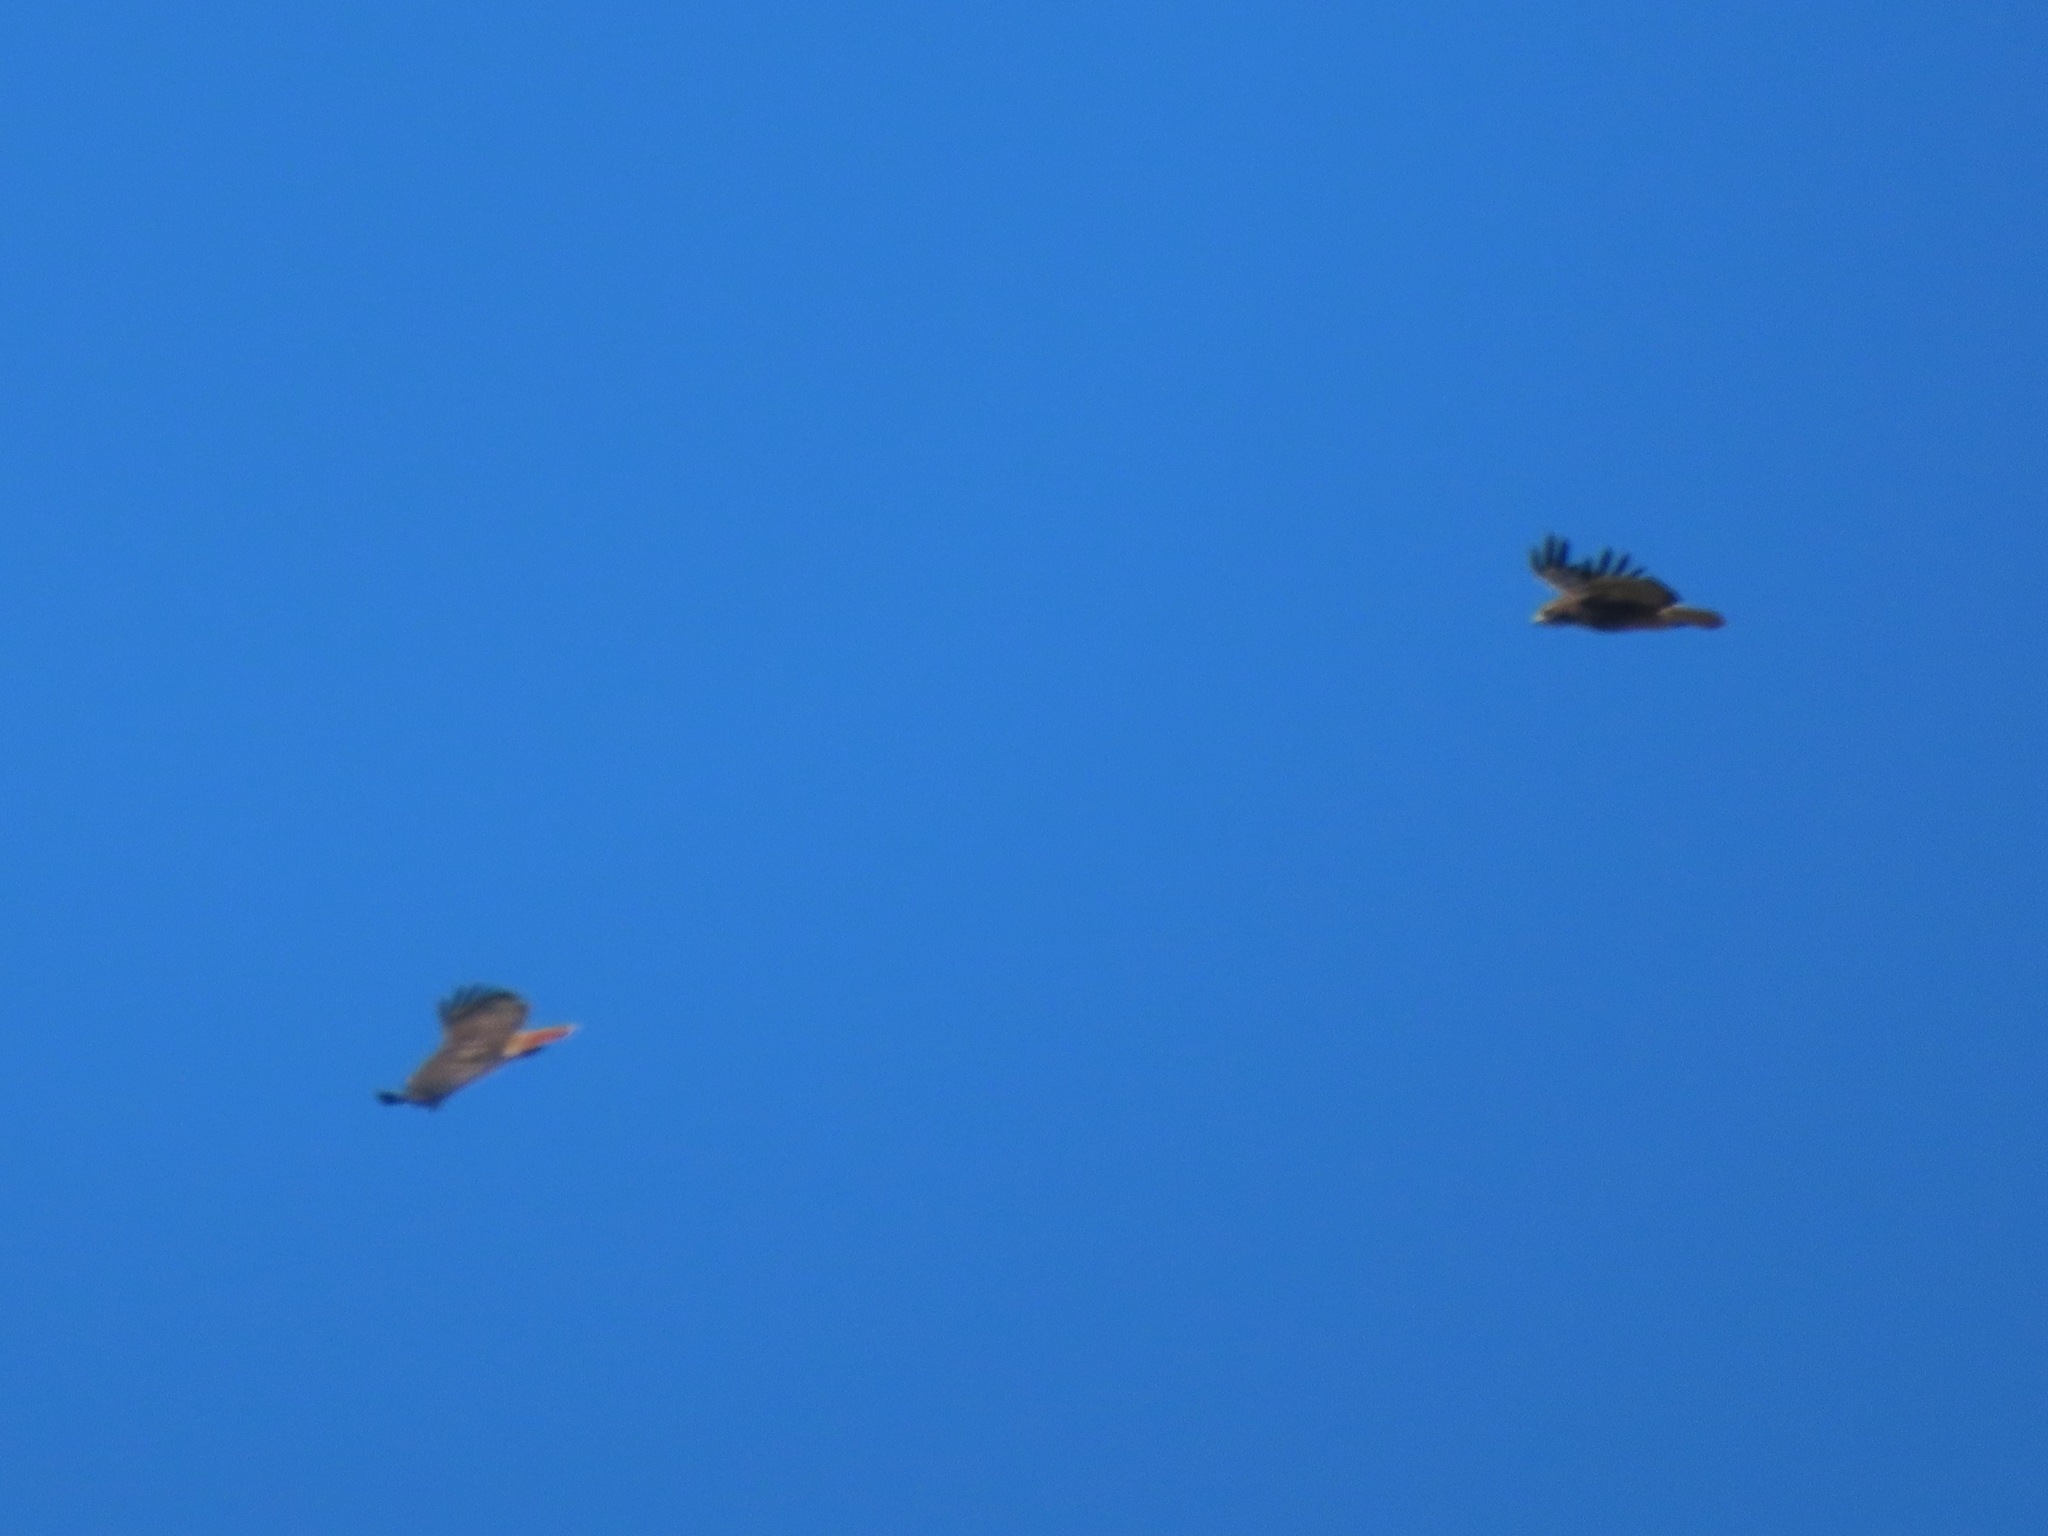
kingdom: Animalia
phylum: Chordata
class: Aves
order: Accipitriformes
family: Accipitridae
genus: Buteo
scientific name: Buteo jamaicensis
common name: Red-tailed hawk
